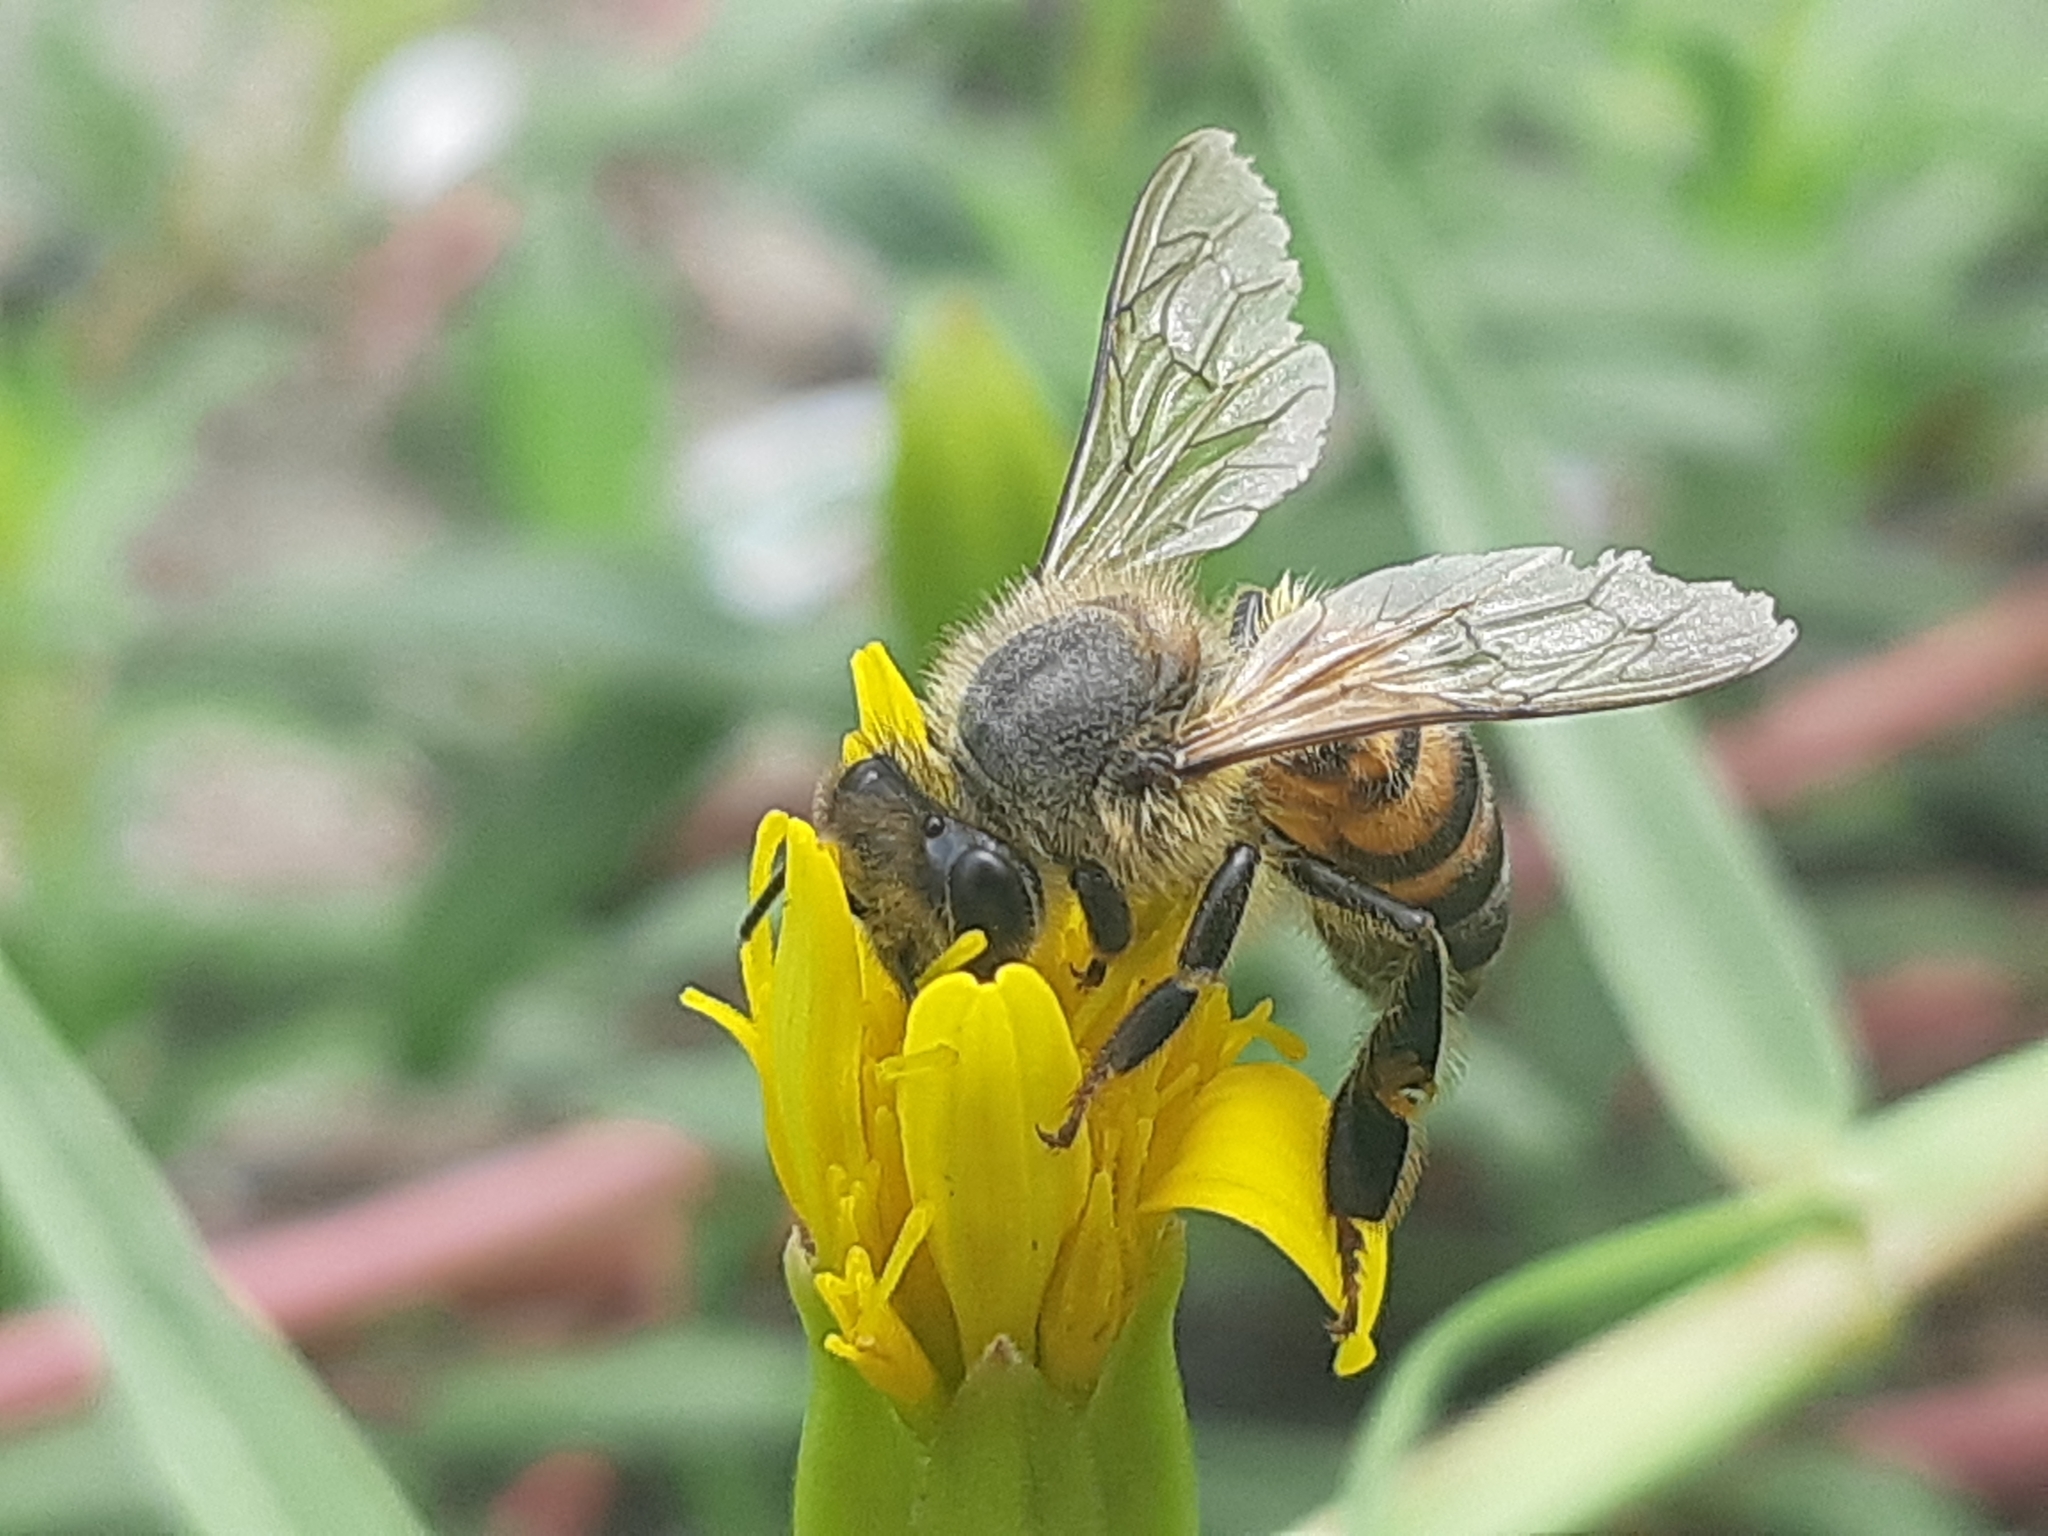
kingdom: Animalia
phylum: Arthropoda
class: Insecta
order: Hymenoptera
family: Apidae
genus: Apis
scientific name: Apis mellifera
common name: Honey bee
